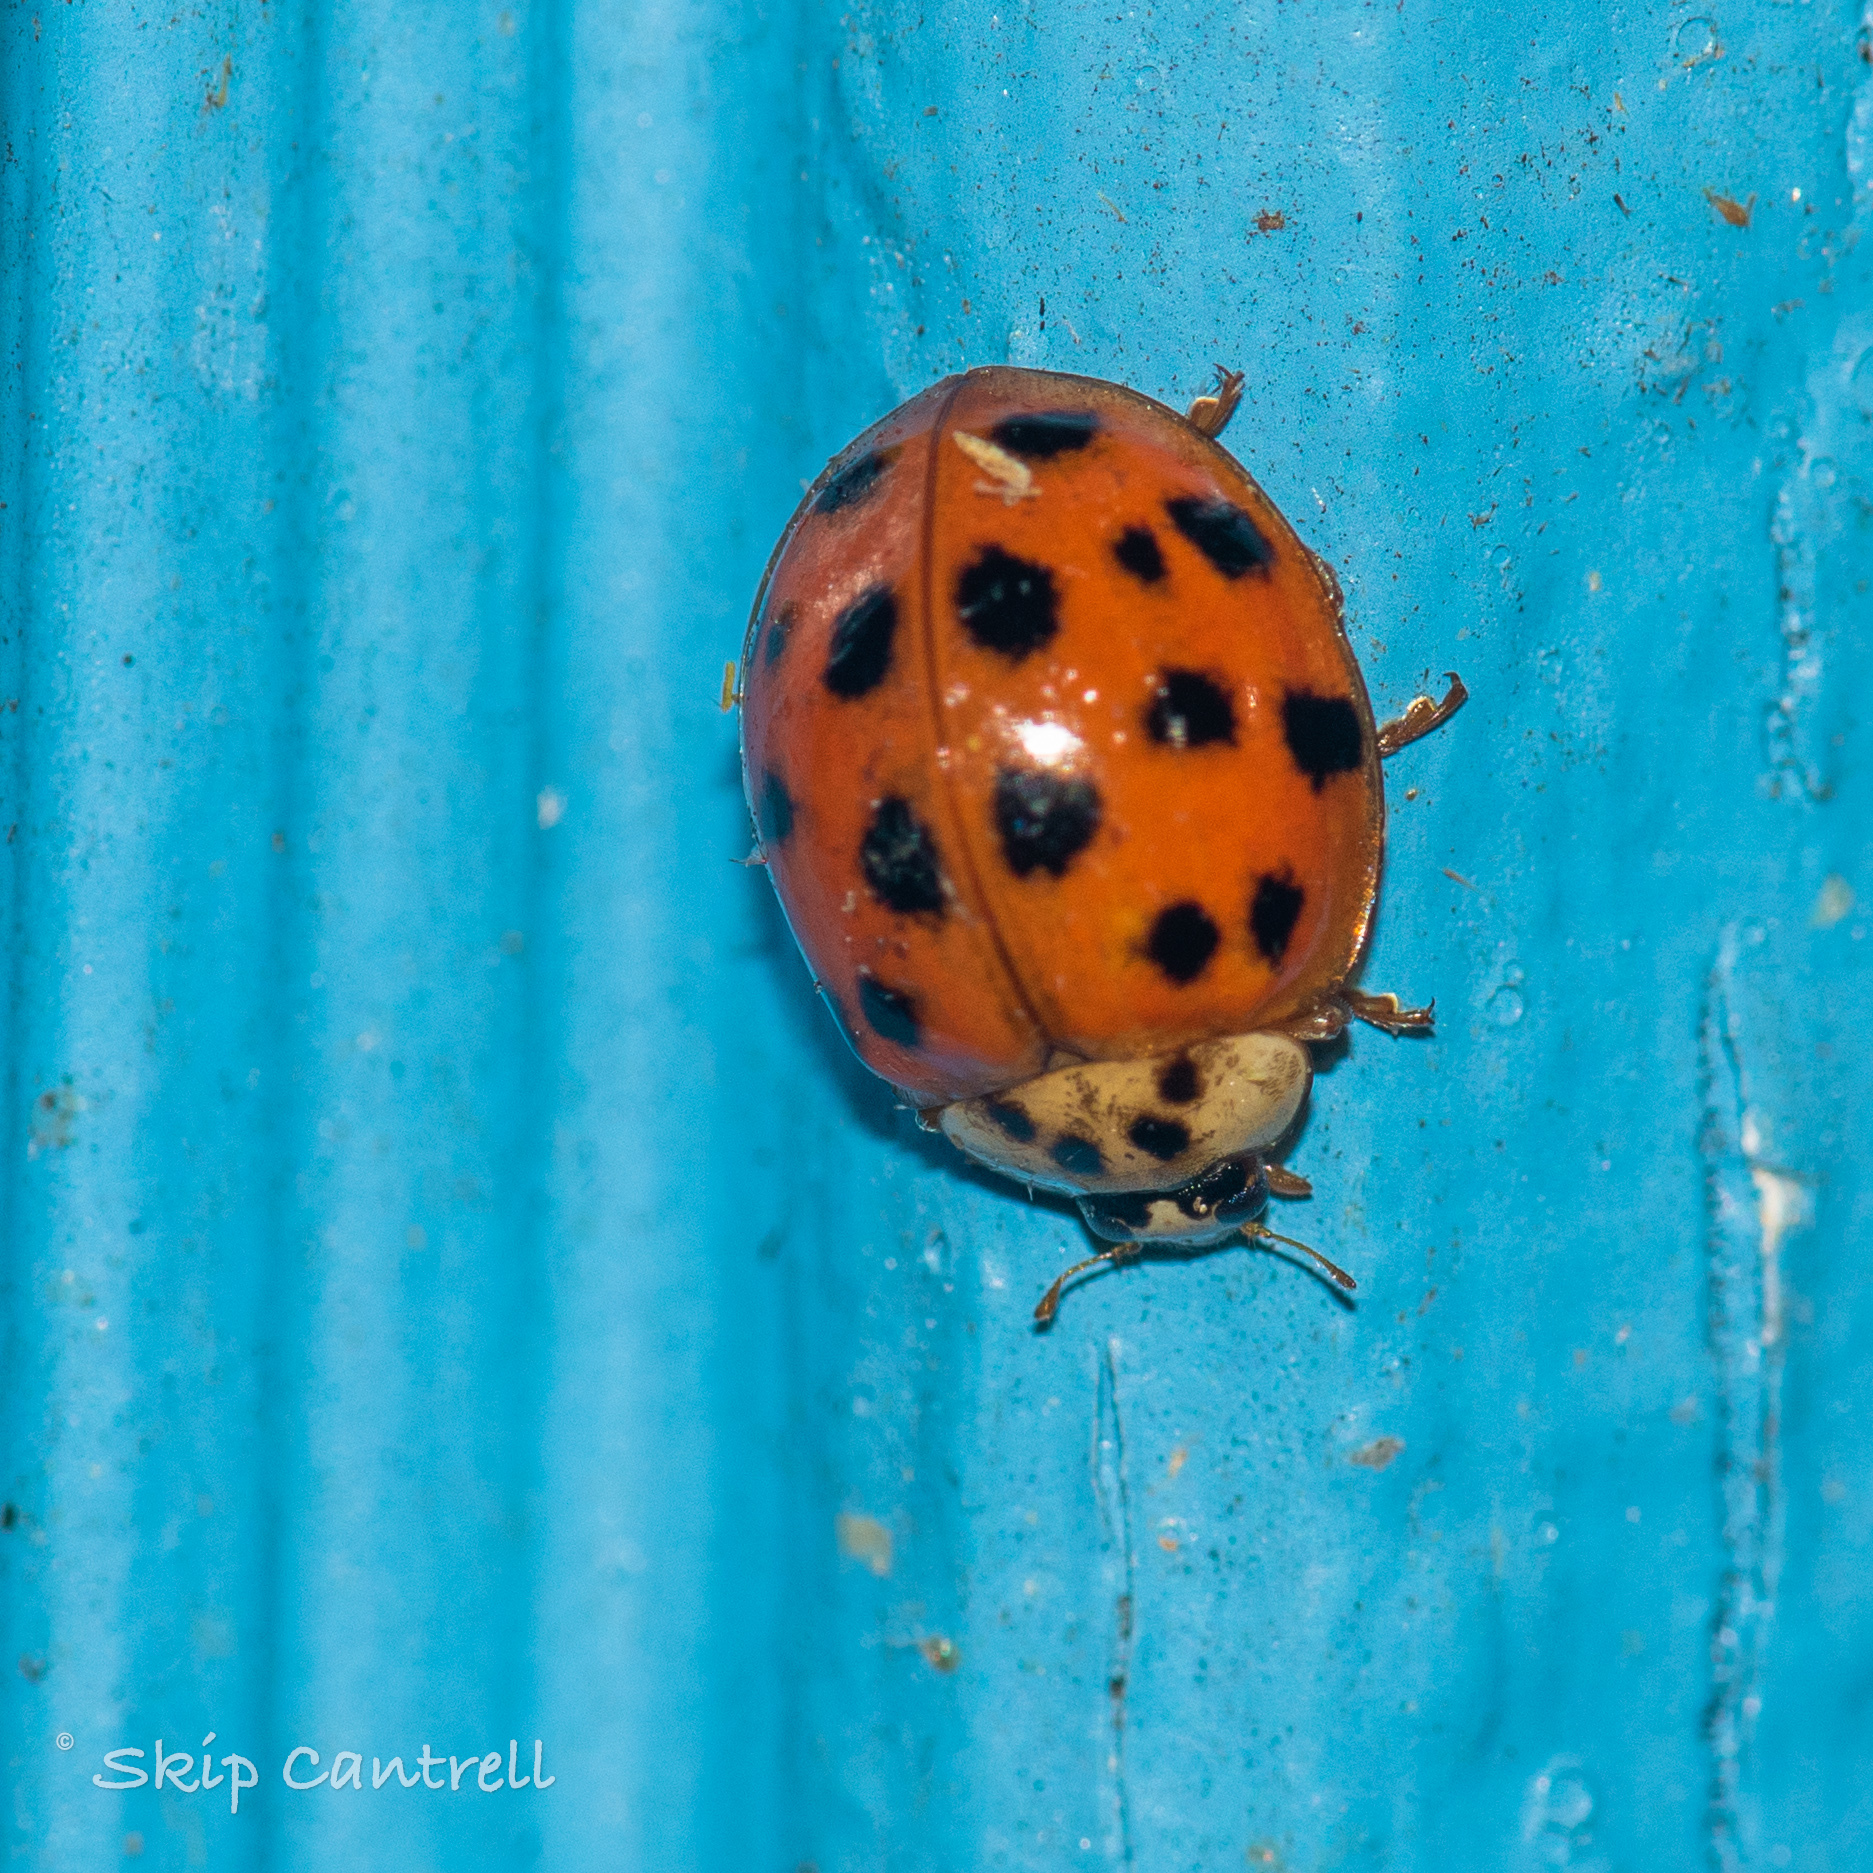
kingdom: Animalia
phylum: Arthropoda
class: Insecta
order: Coleoptera
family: Coccinellidae
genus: Harmonia
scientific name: Harmonia axyridis
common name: Harlequin ladybird
